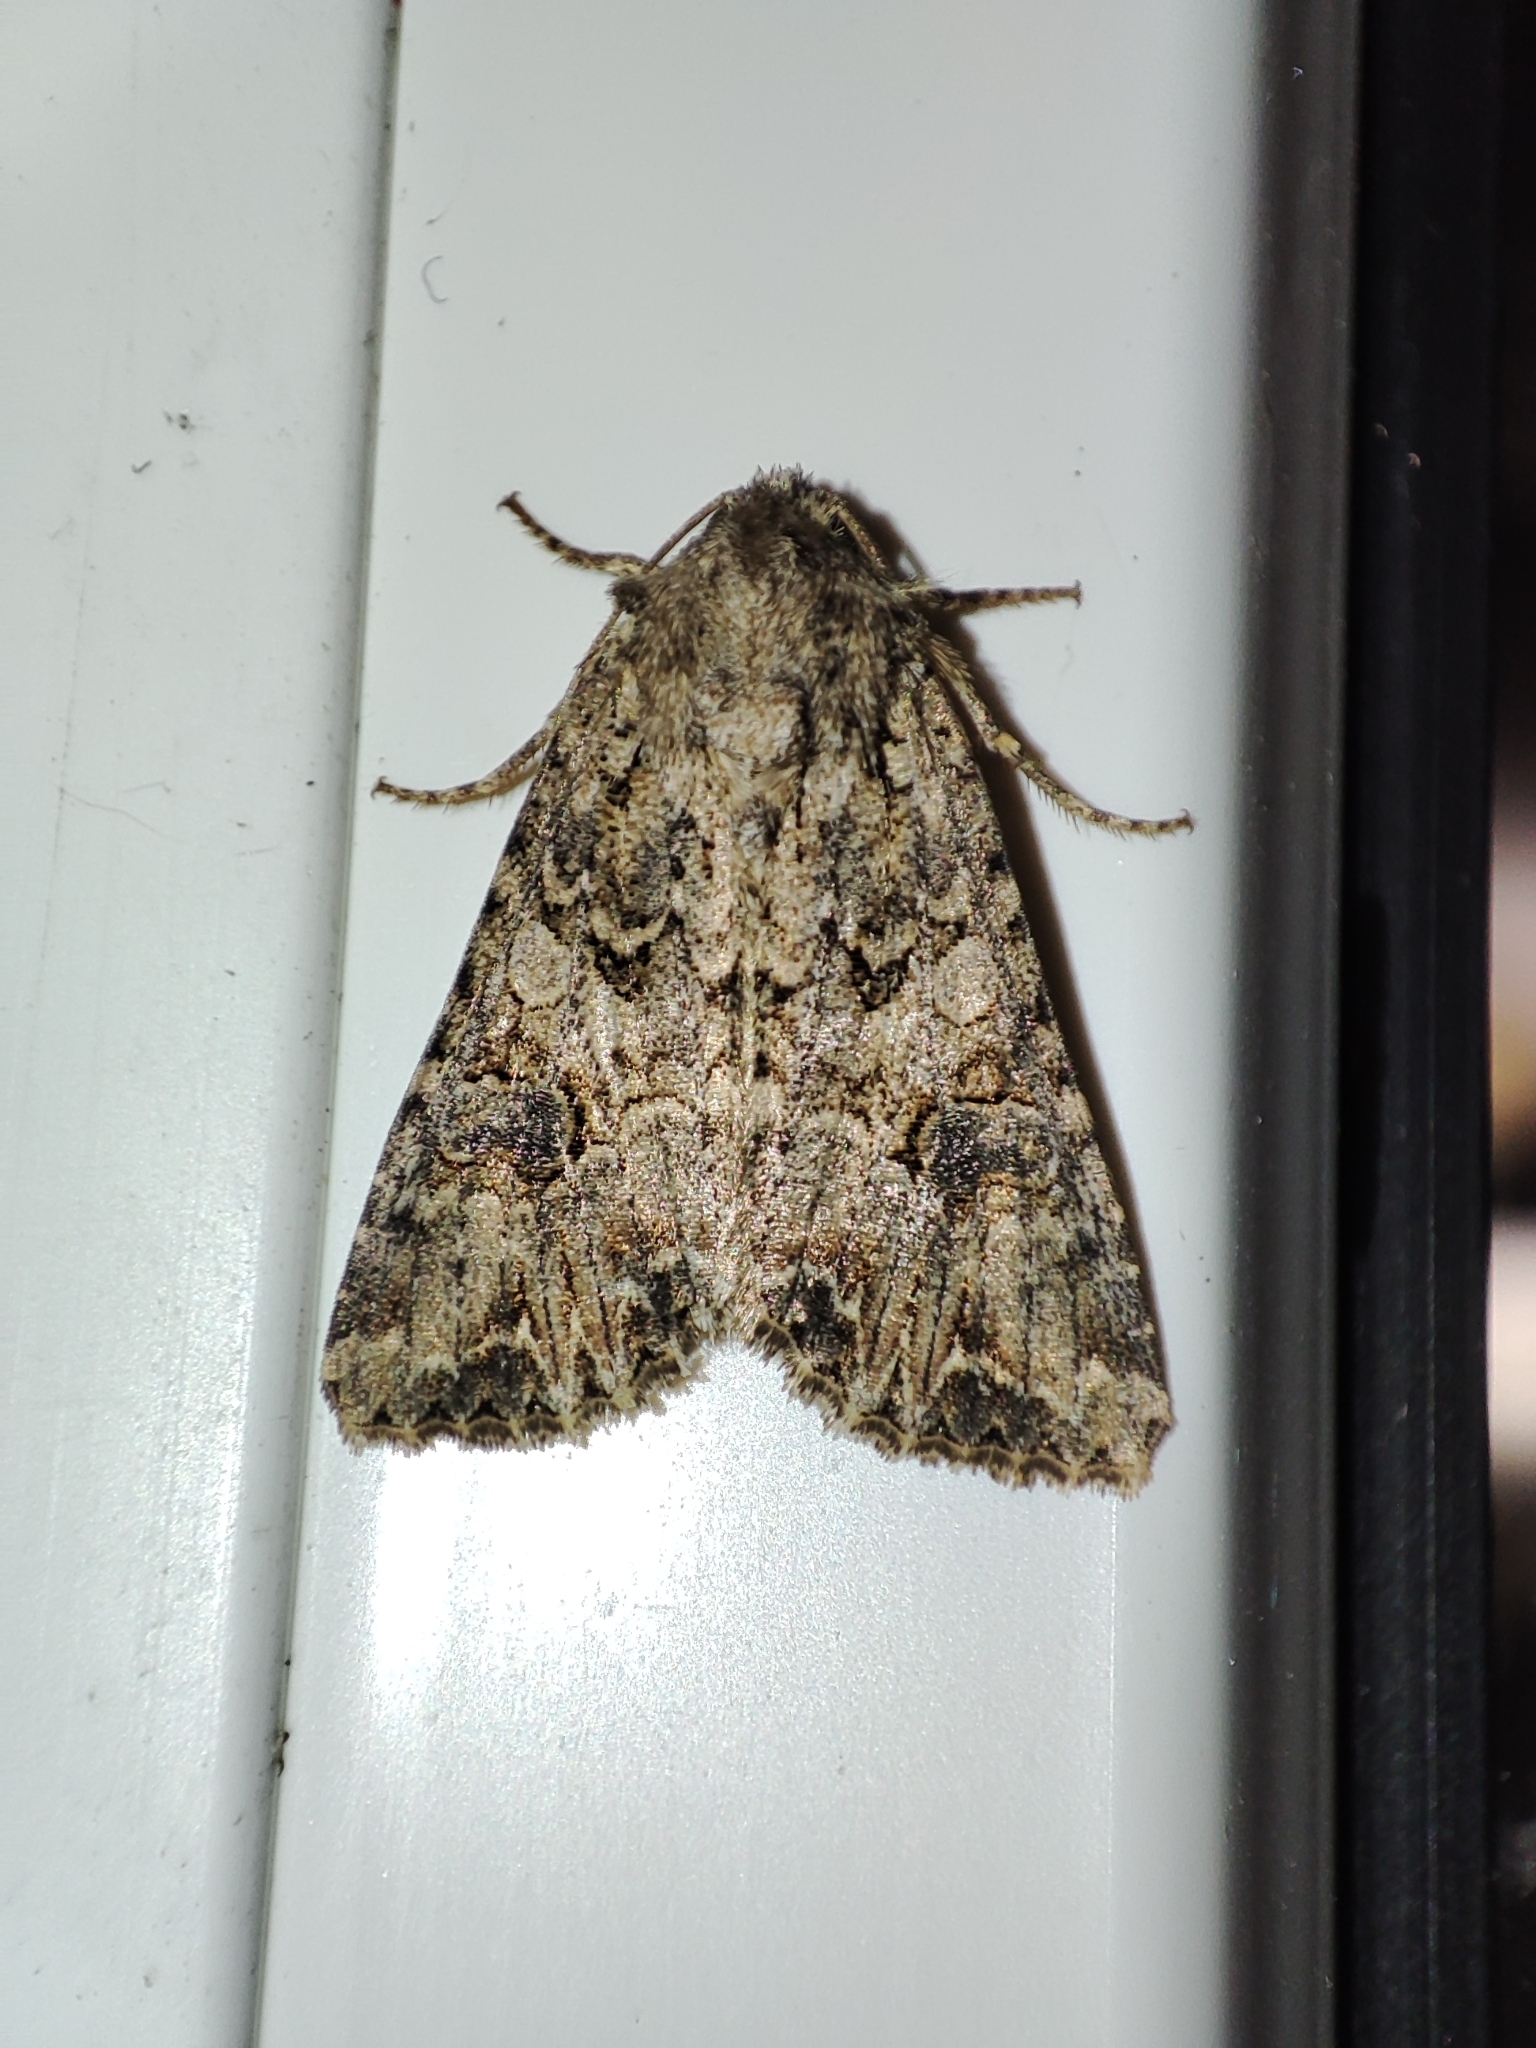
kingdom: Animalia
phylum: Arthropoda
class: Insecta
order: Lepidoptera
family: Noctuidae
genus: Anarta
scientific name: Anarta trifolii
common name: Clover cutworm moth
